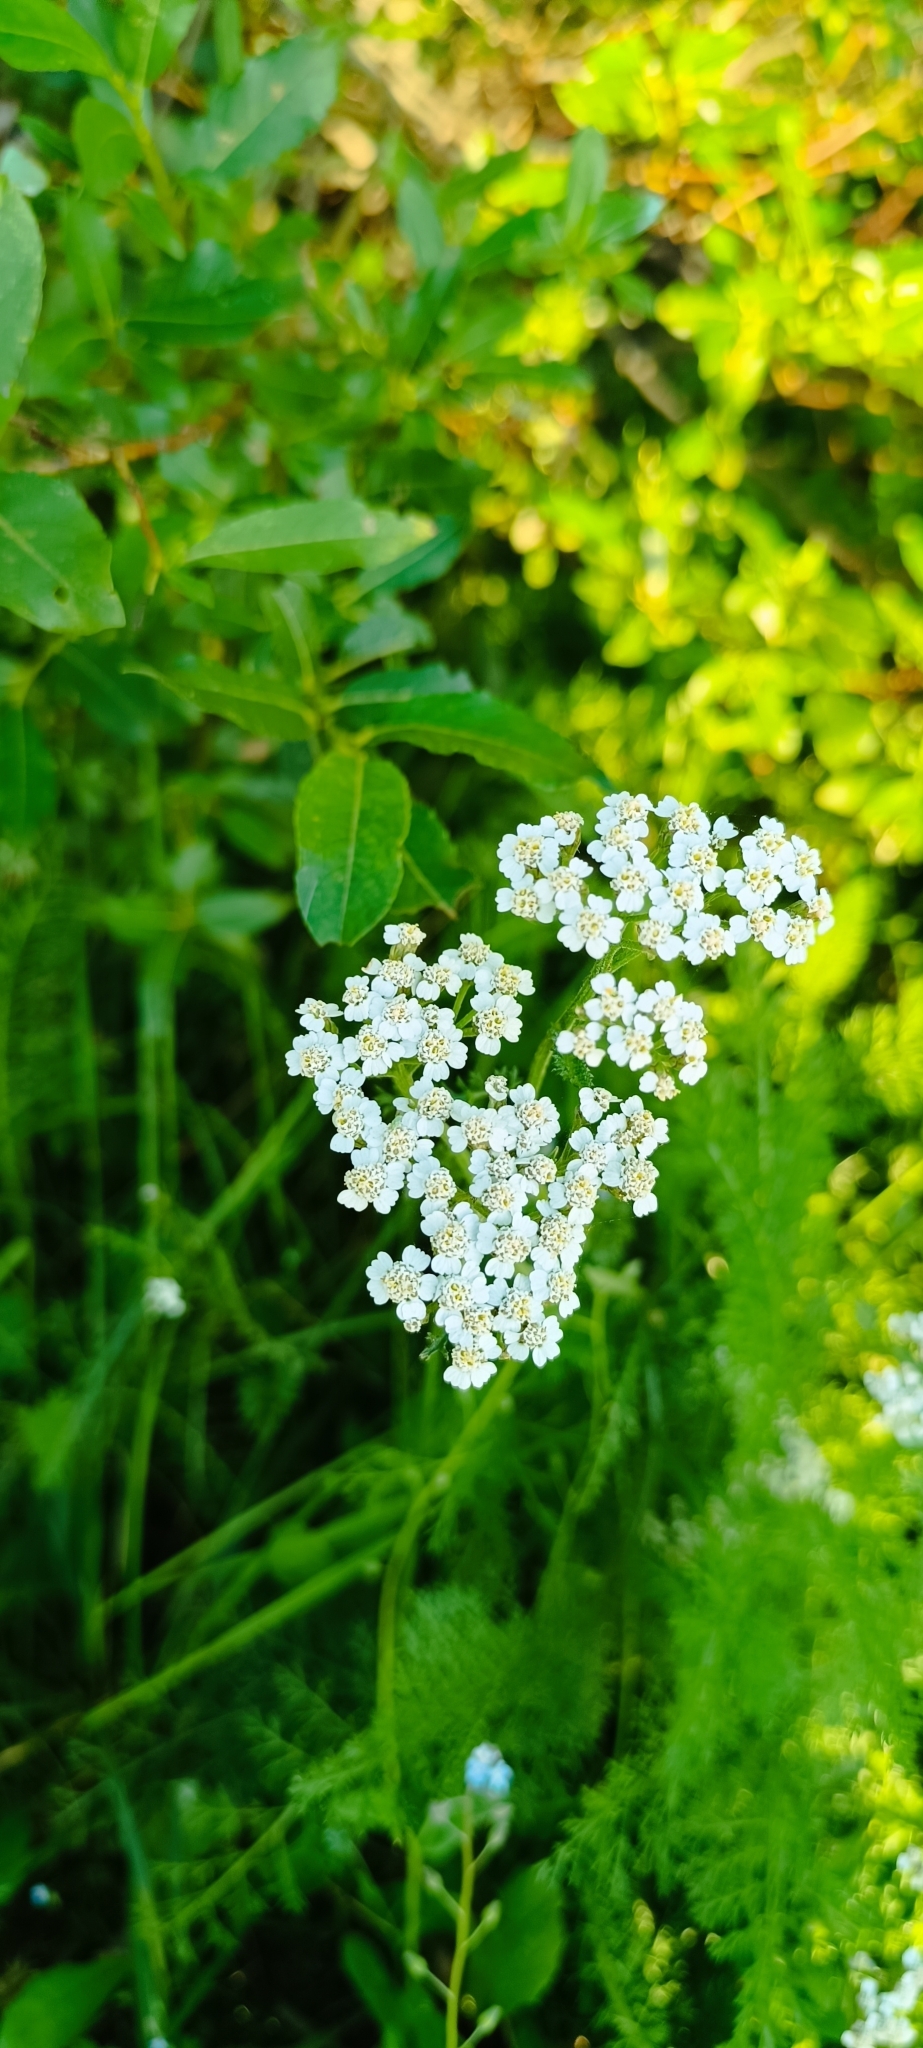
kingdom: Plantae
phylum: Tracheophyta
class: Magnoliopsida
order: Asterales
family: Asteraceae
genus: Achillea
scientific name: Achillea millefolium
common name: Yarrow
